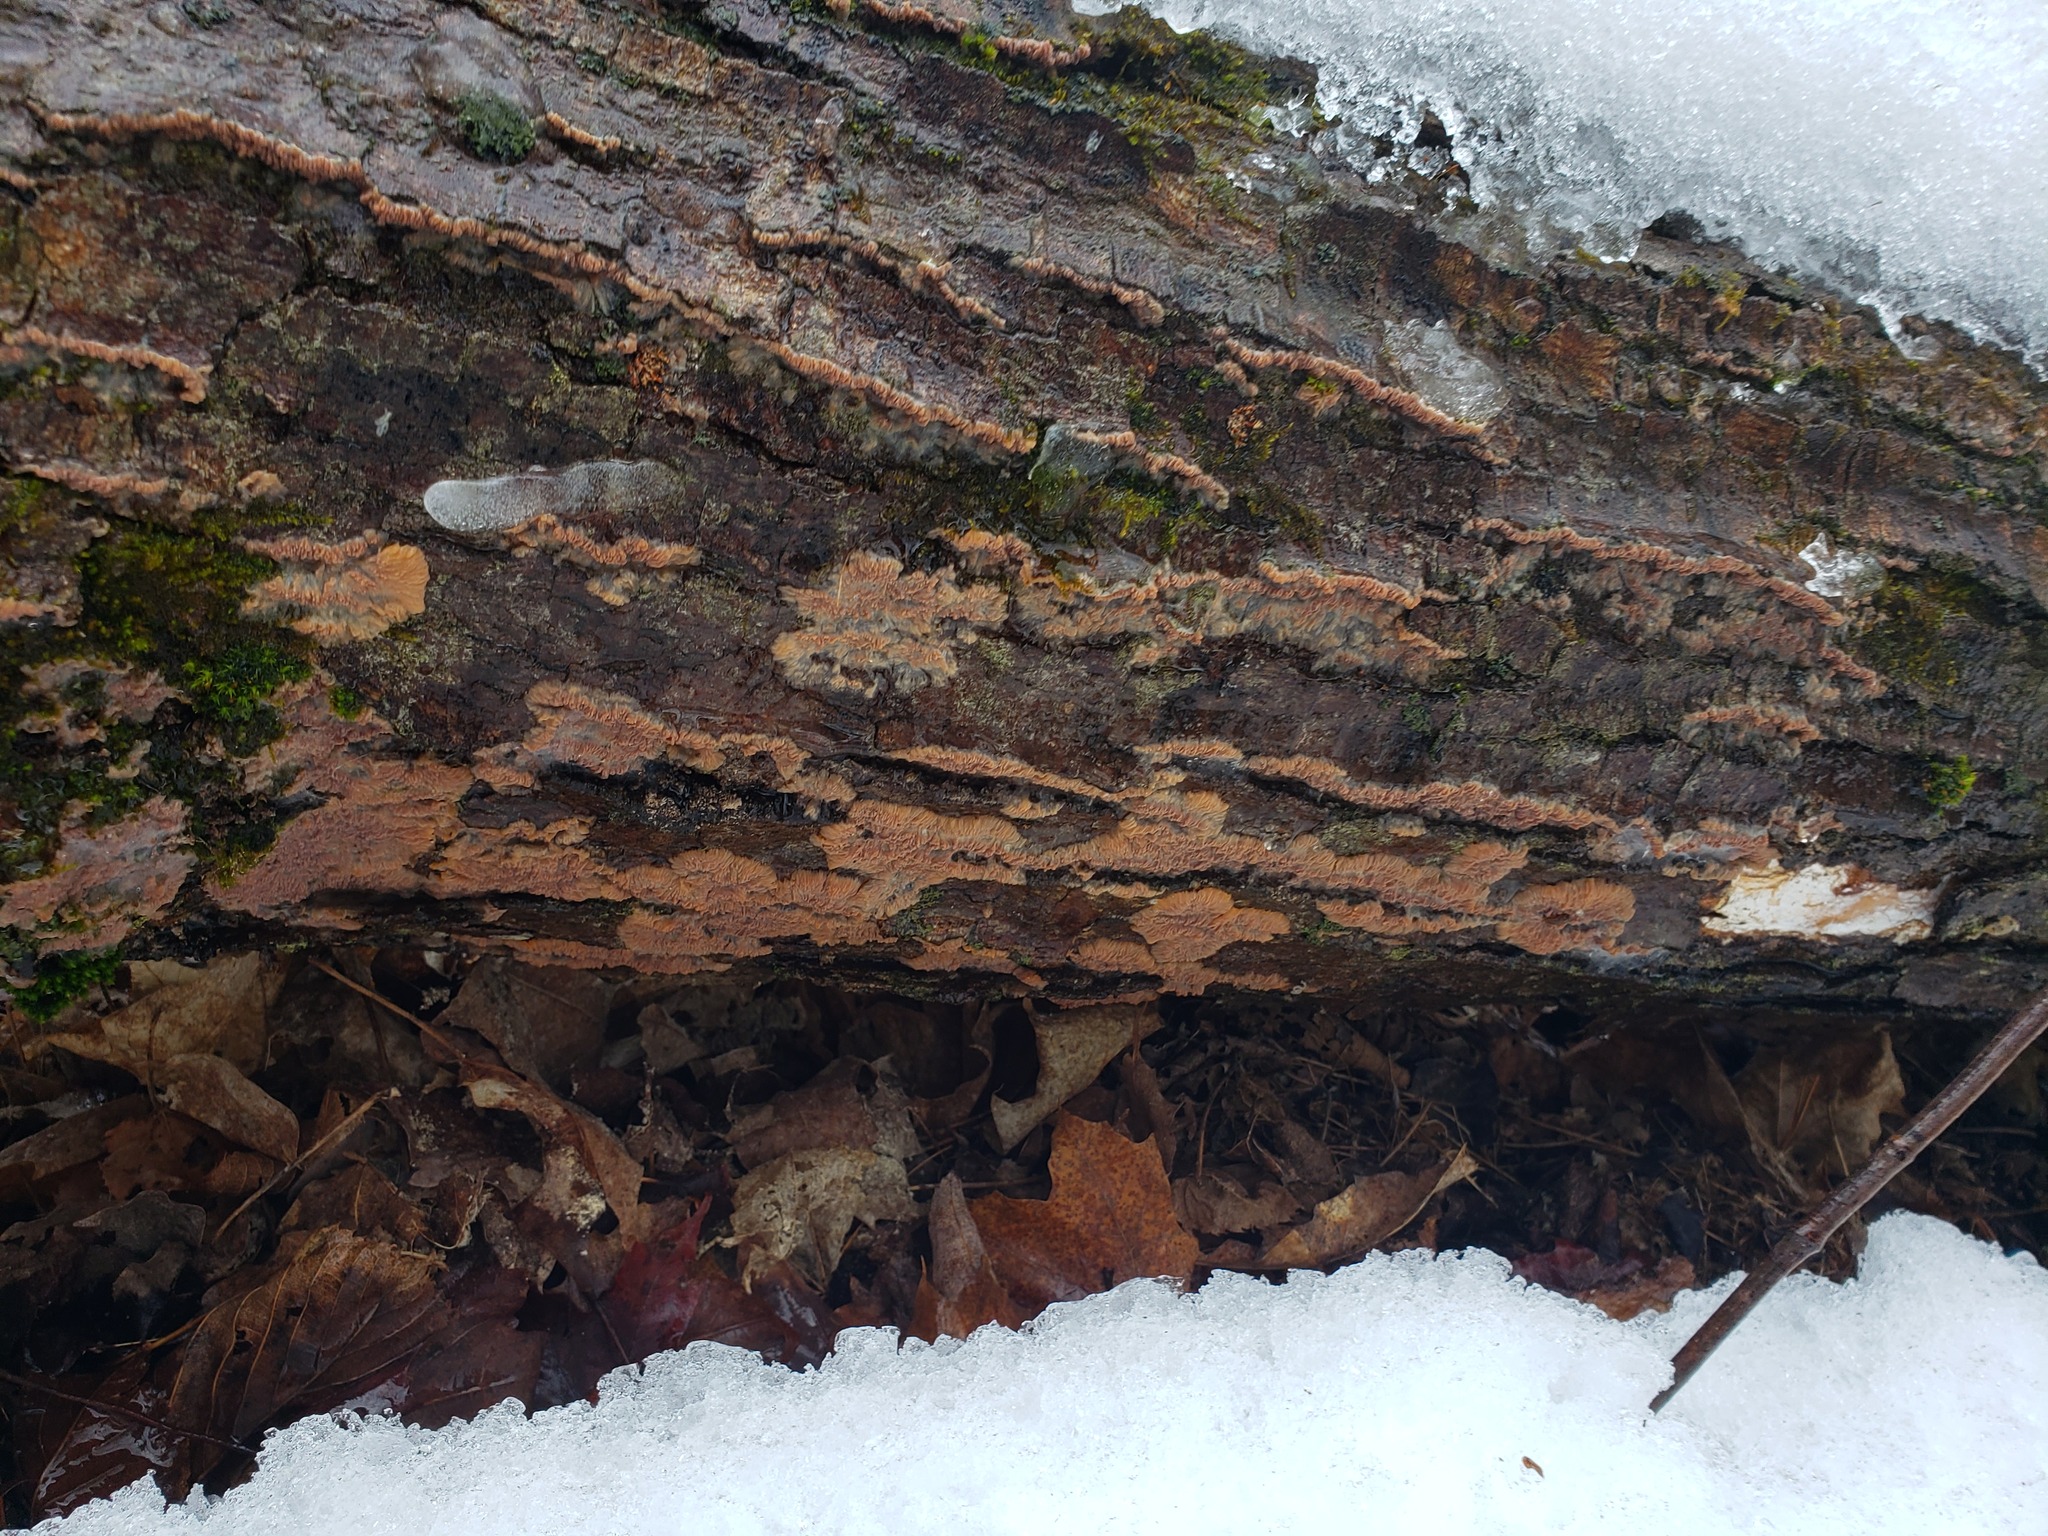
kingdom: Fungi
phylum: Basidiomycota
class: Agaricomycetes
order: Polyporales
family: Meruliaceae
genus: Phlebia
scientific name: Phlebia radiata
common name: Wrinkled crust
